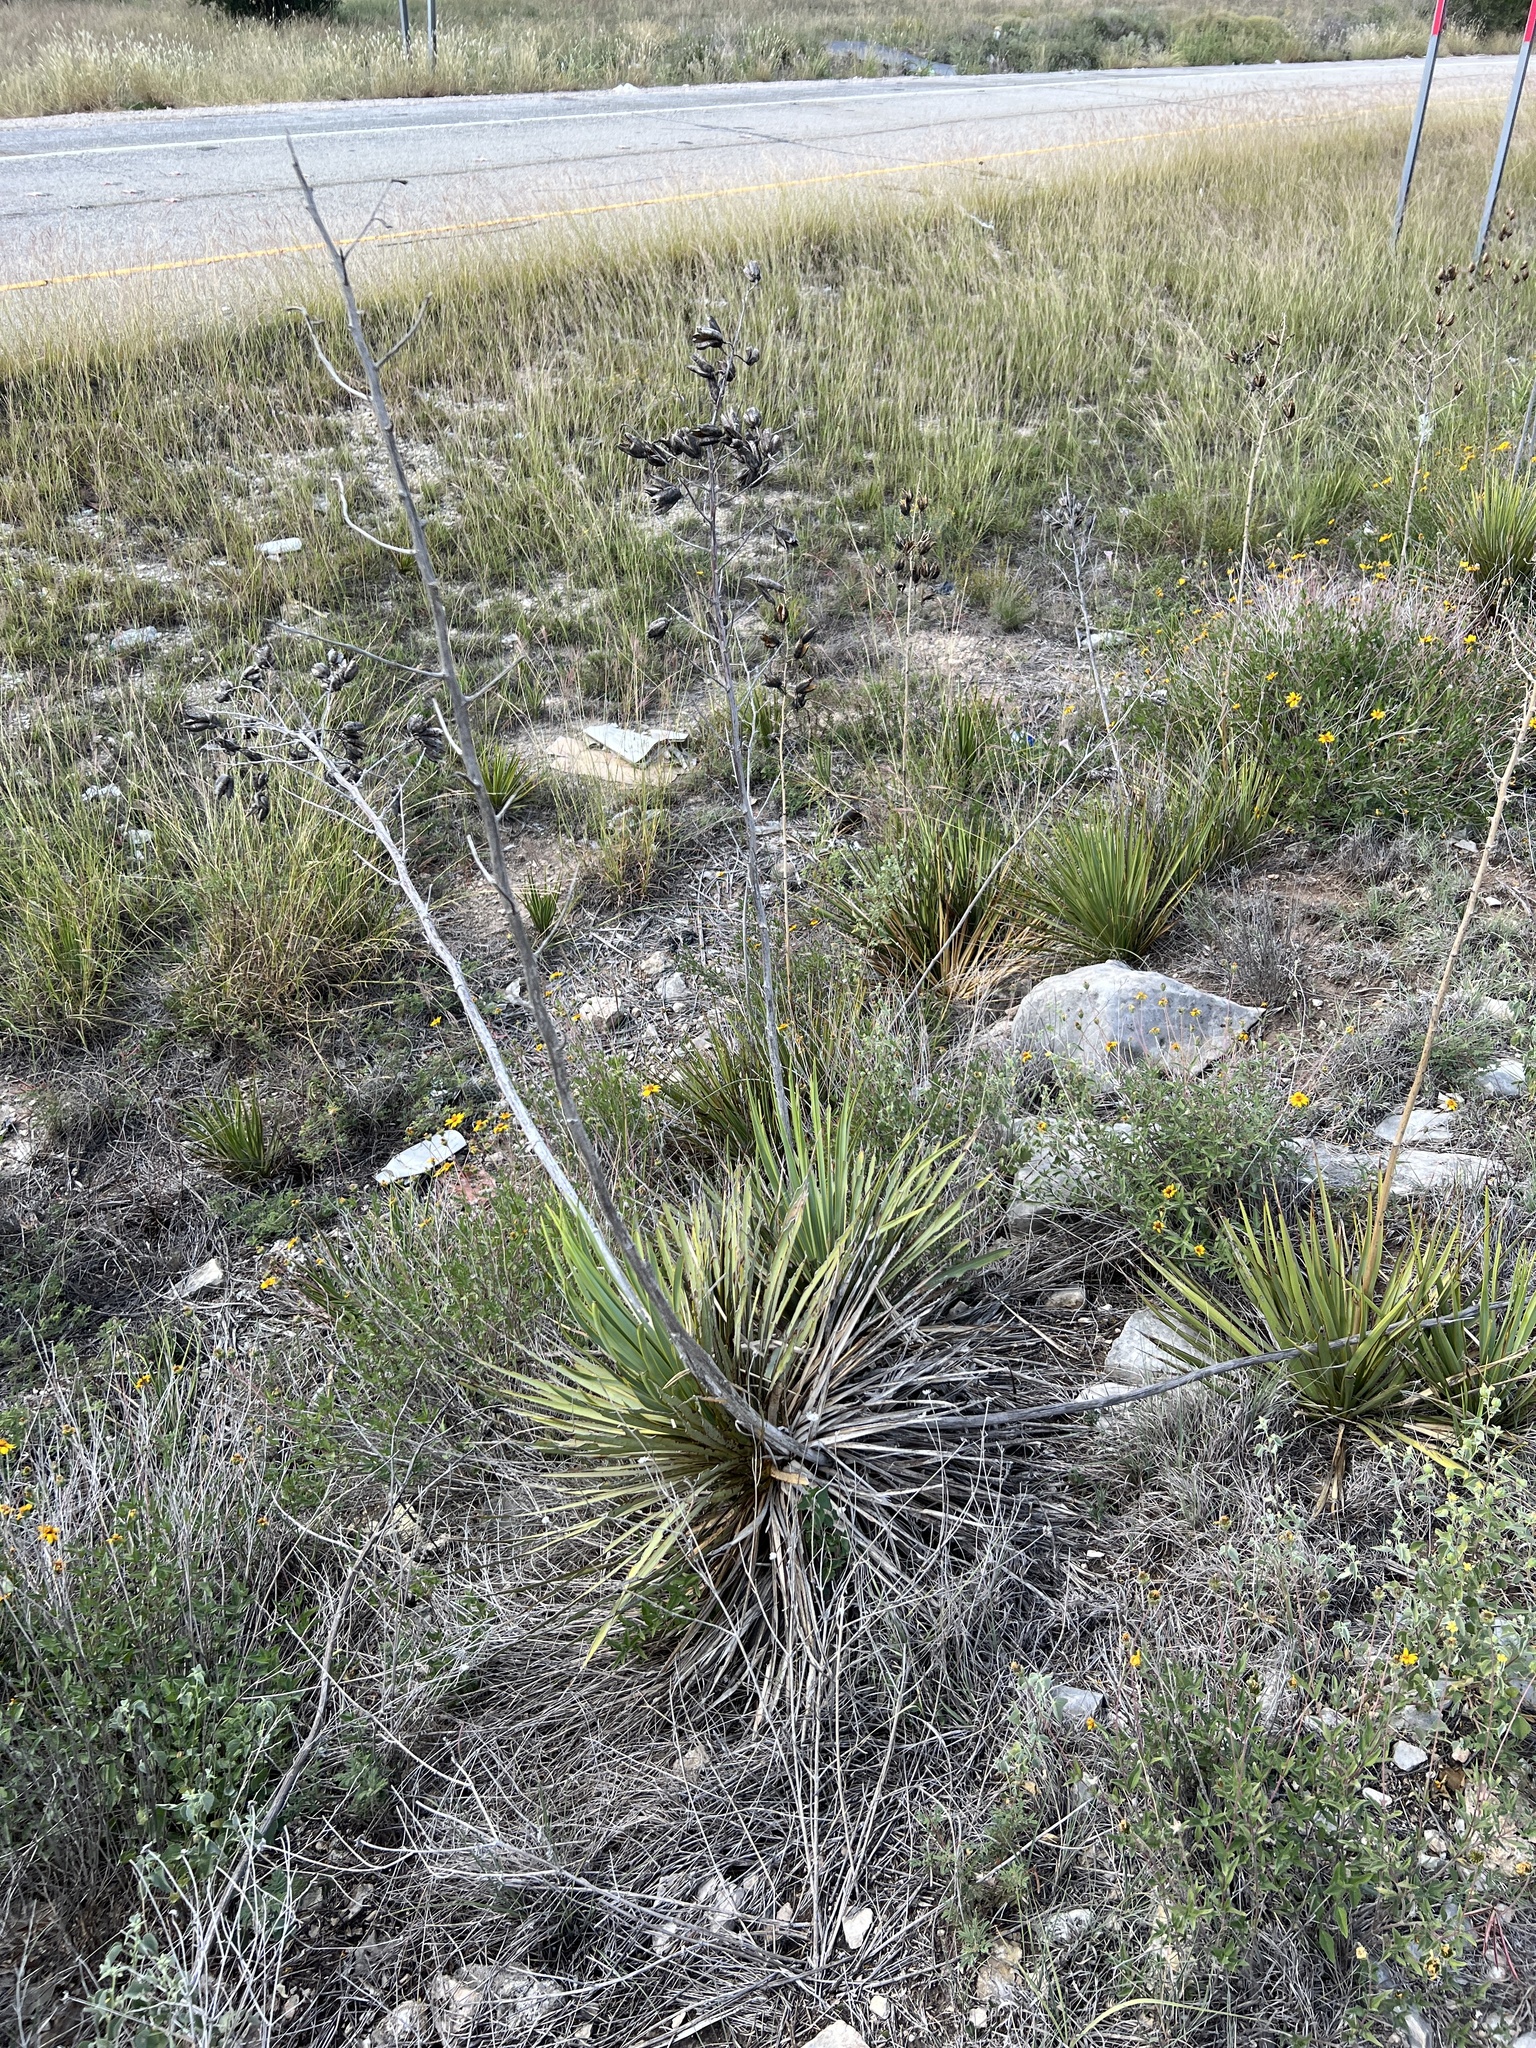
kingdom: Plantae
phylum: Tracheophyta
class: Liliopsida
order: Asparagales
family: Asparagaceae
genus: Yucca
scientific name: Yucca reverchonii
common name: San angelo yucca
